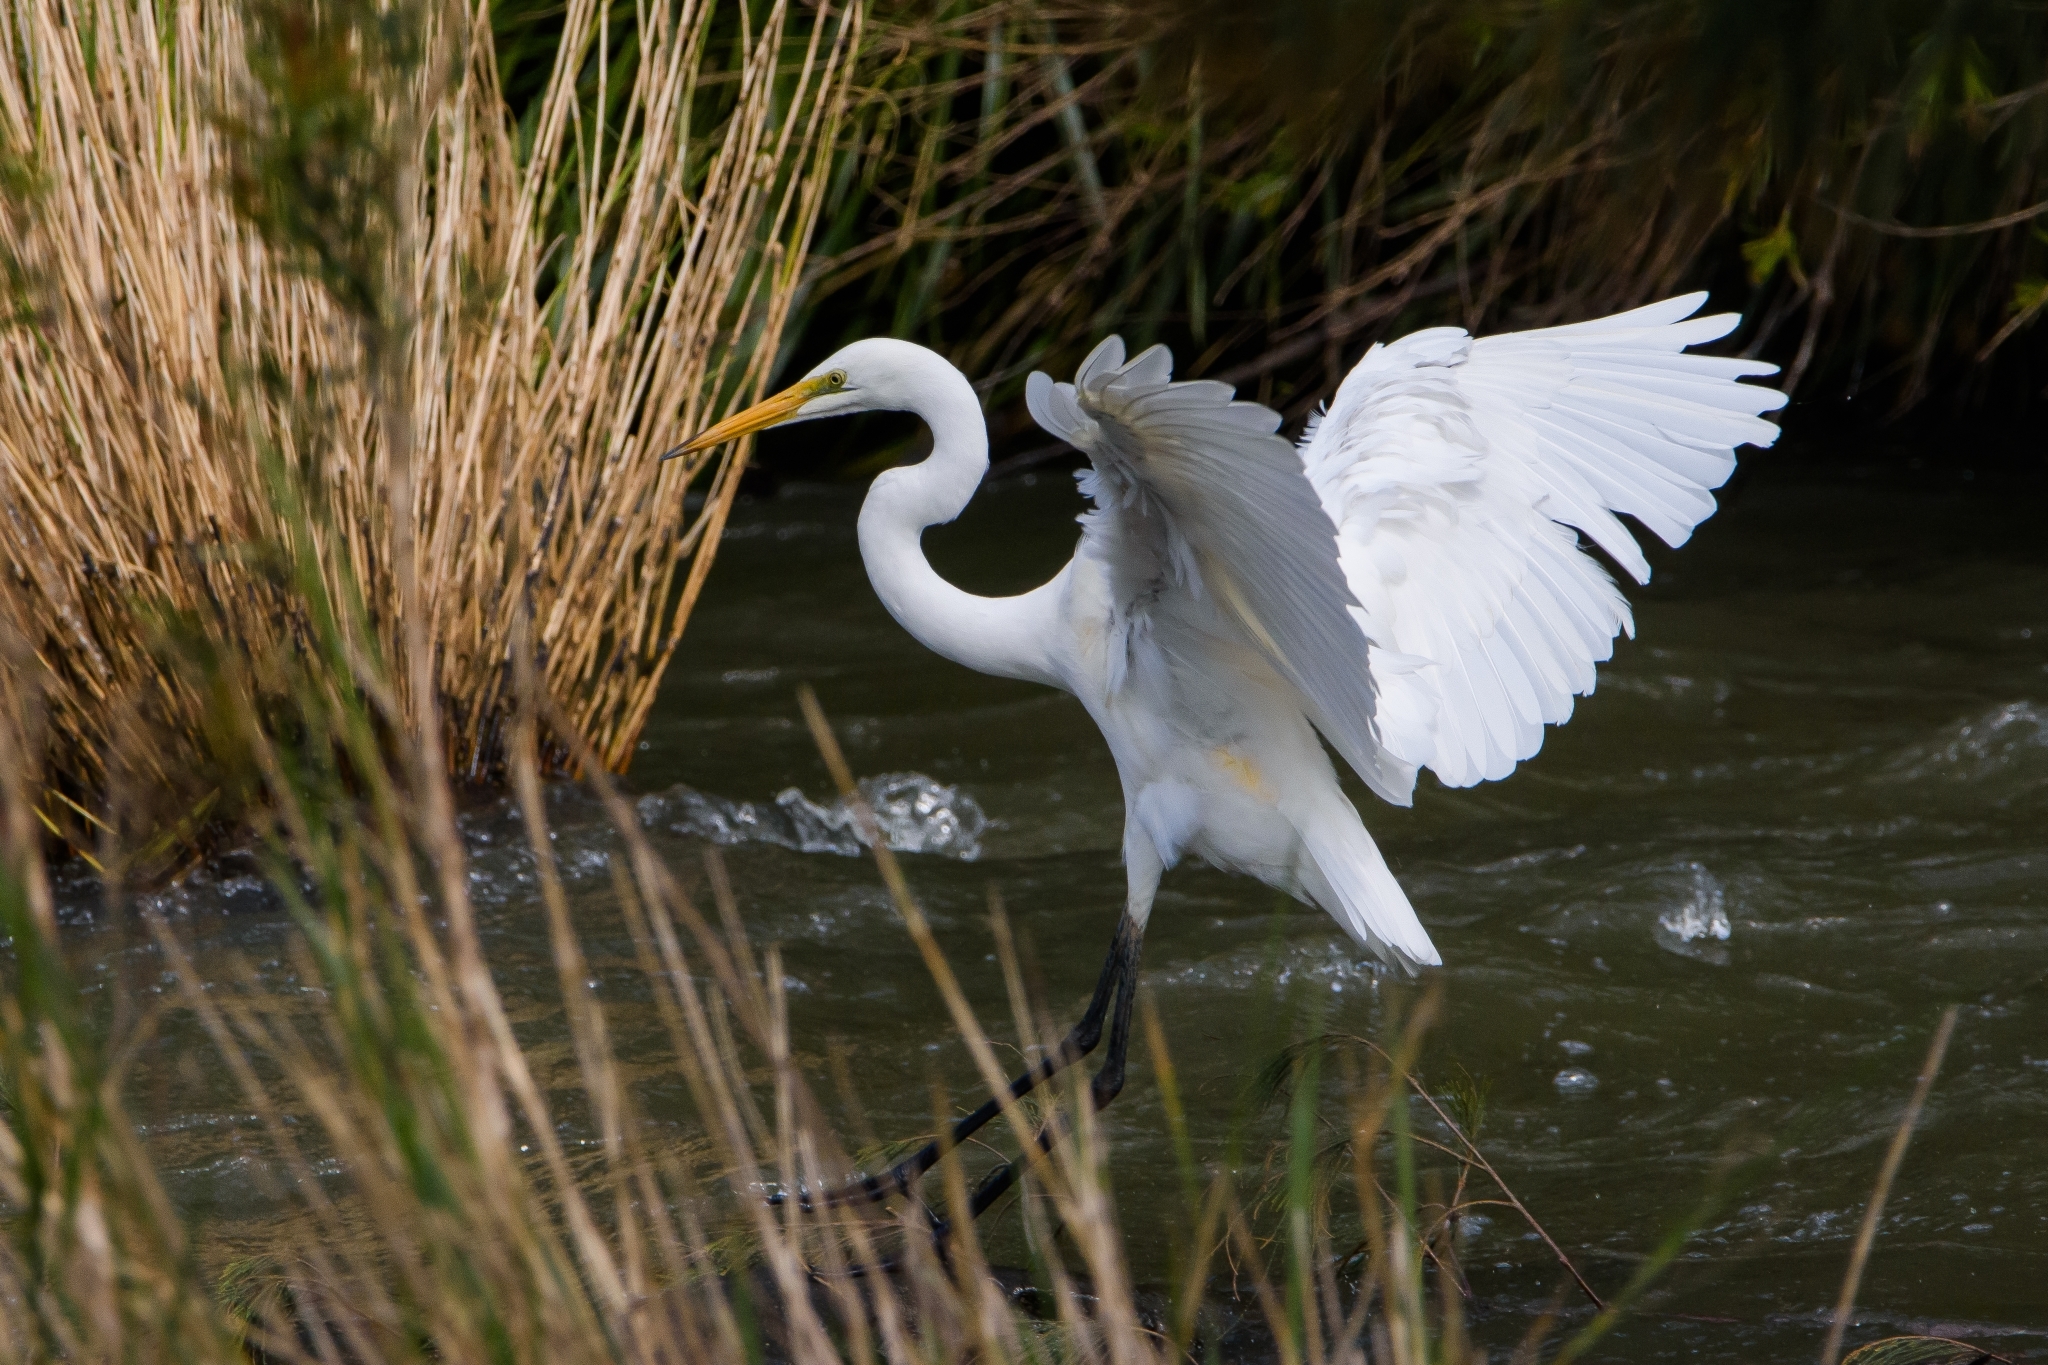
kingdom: Animalia
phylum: Chordata
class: Aves
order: Pelecaniformes
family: Ardeidae
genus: Ardea
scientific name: Ardea alba
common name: Great egret
